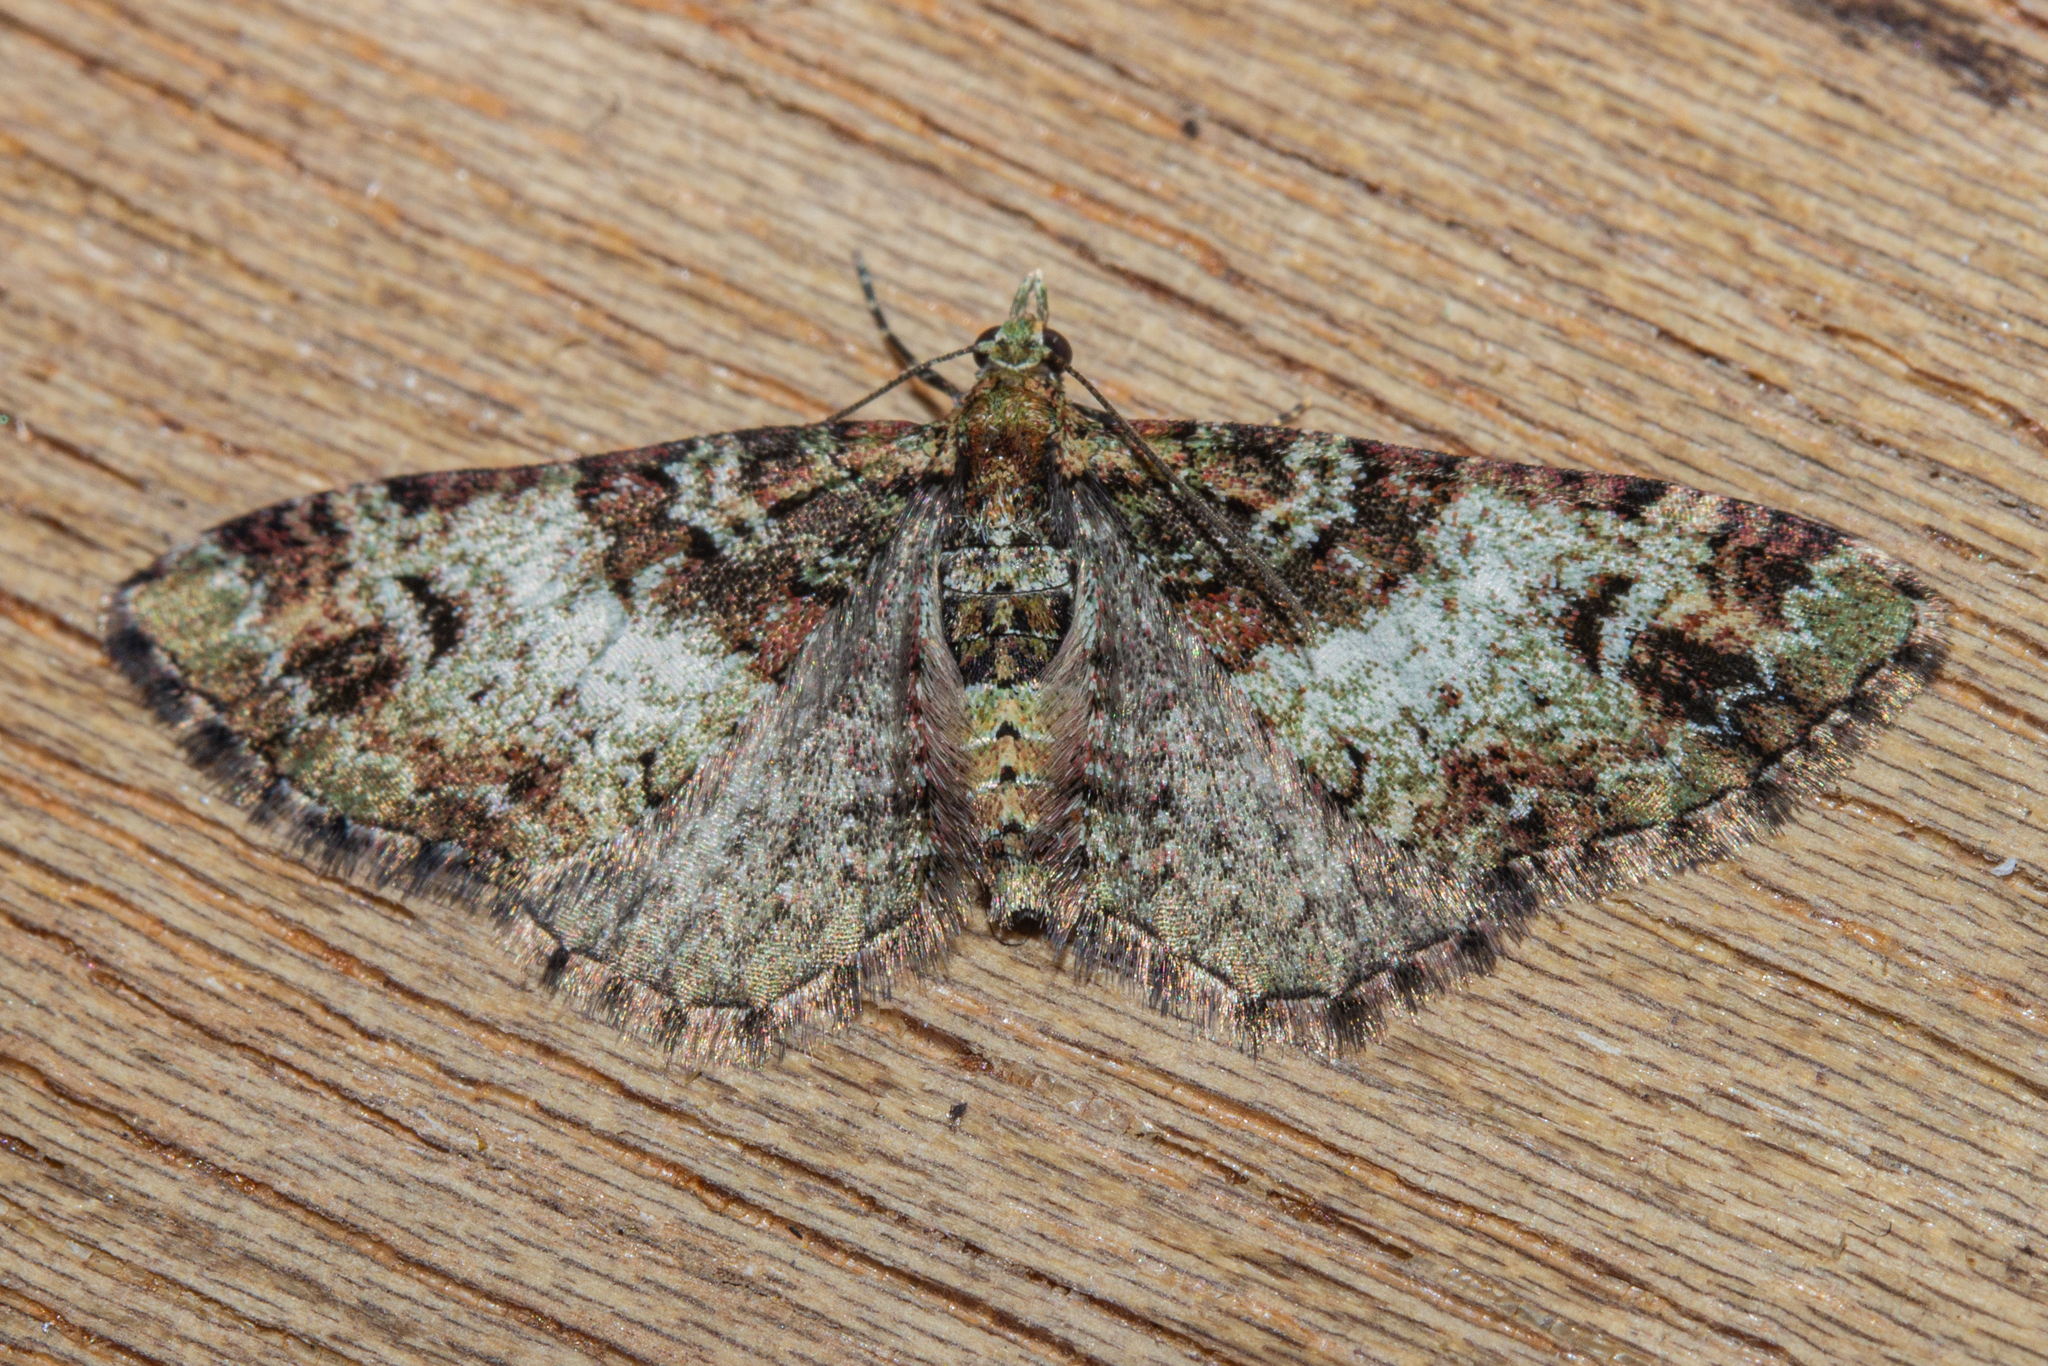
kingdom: Animalia
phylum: Arthropoda
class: Insecta
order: Lepidoptera
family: Geometridae
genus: Pasiphila
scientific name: Pasiphila bilineolata
